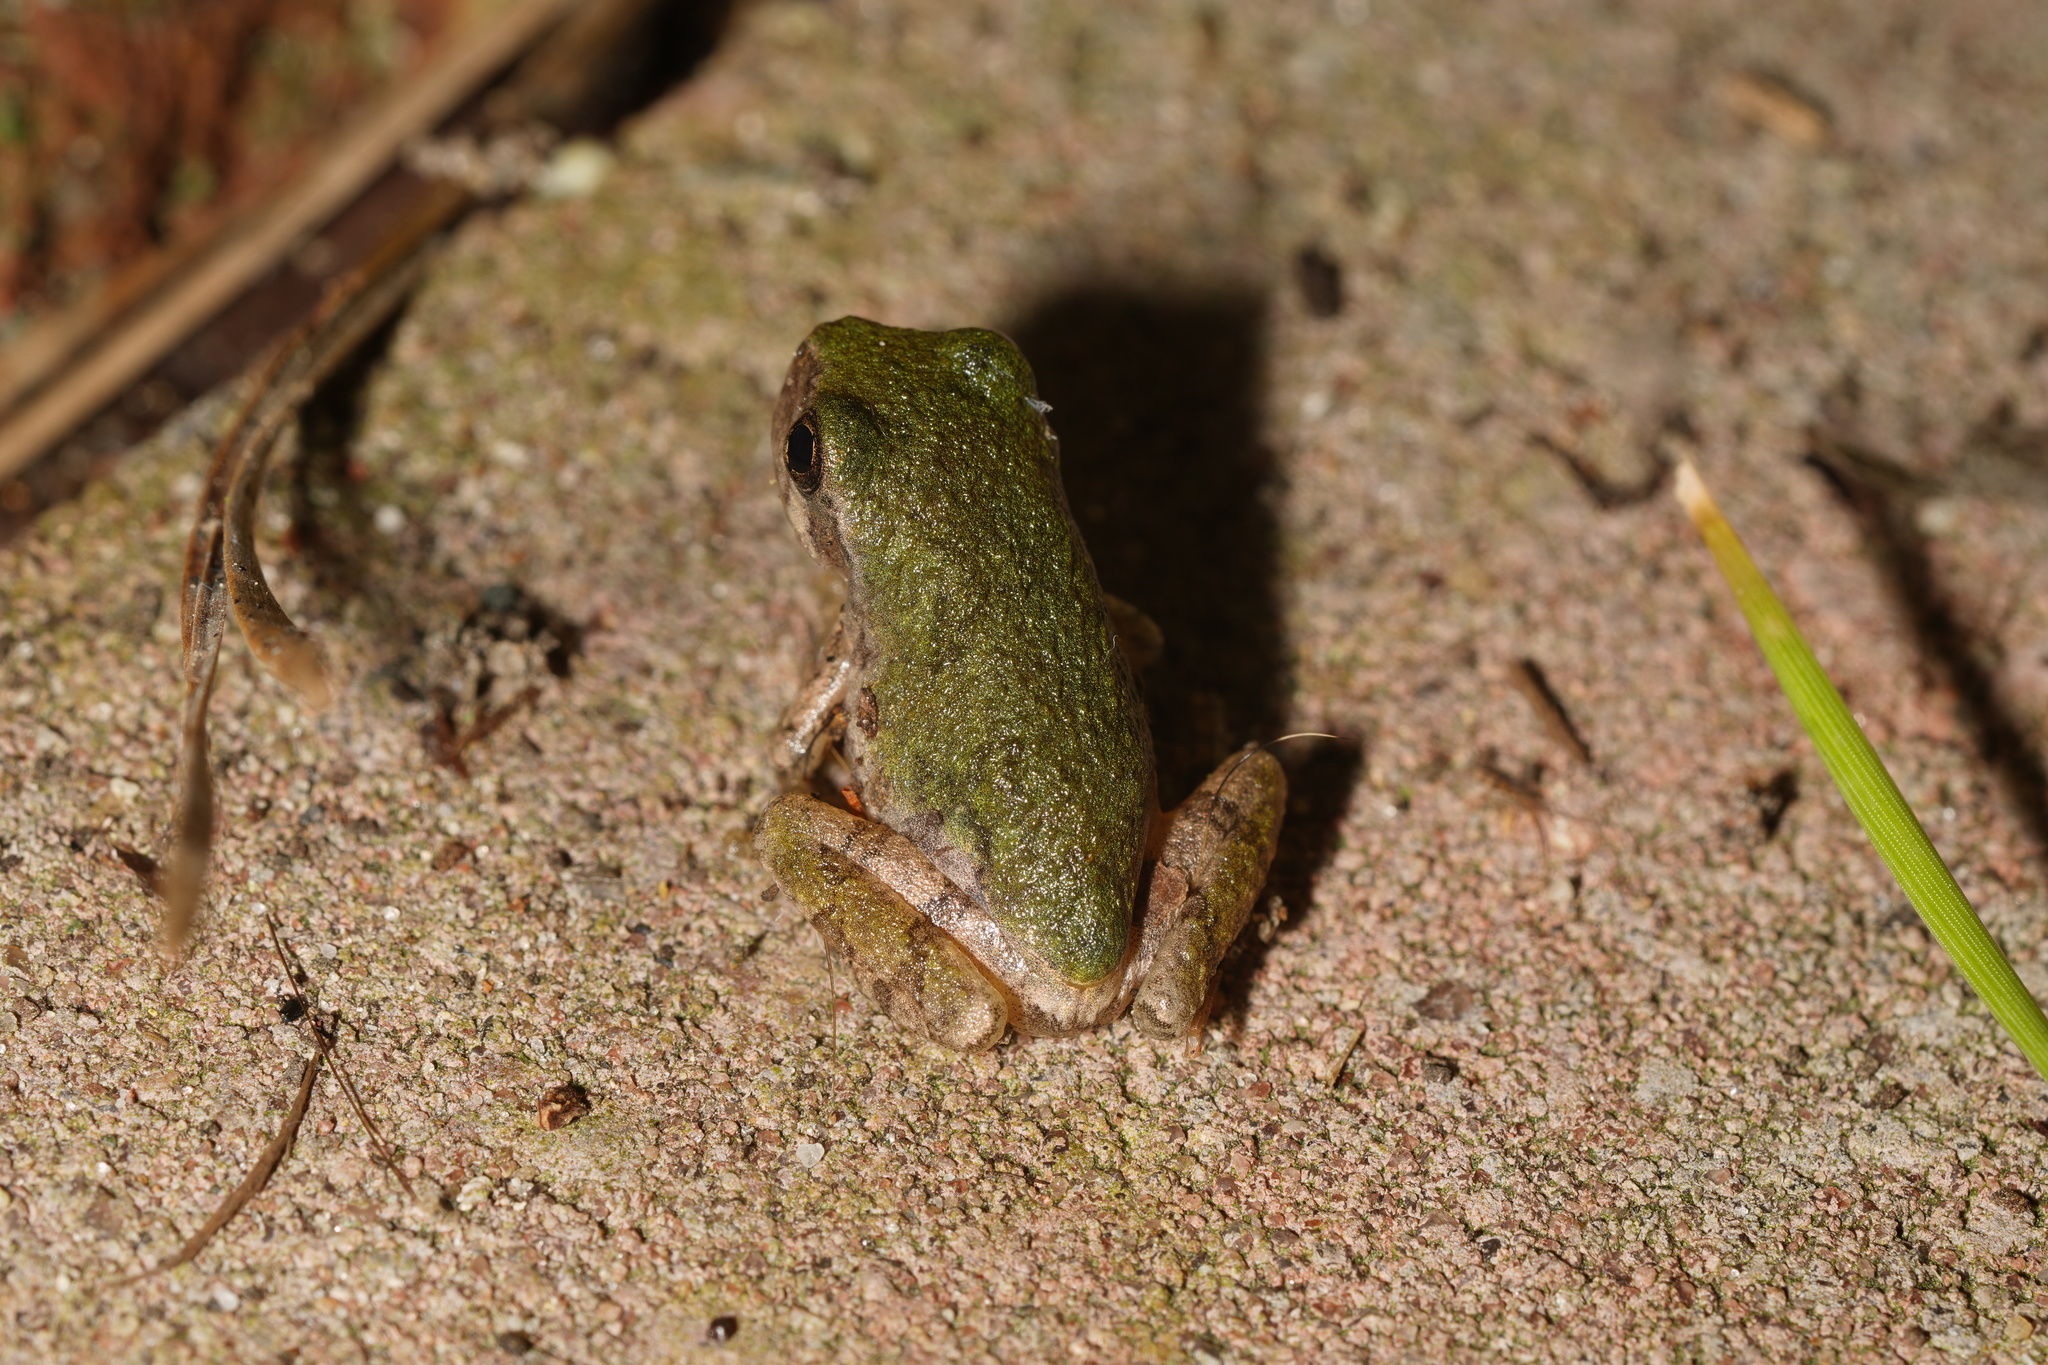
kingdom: Animalia
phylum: Chordata
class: Amphibia
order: Anura
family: Hylidae
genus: Dryophytes
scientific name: Dryophytes versicolor
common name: Gray treefrog
